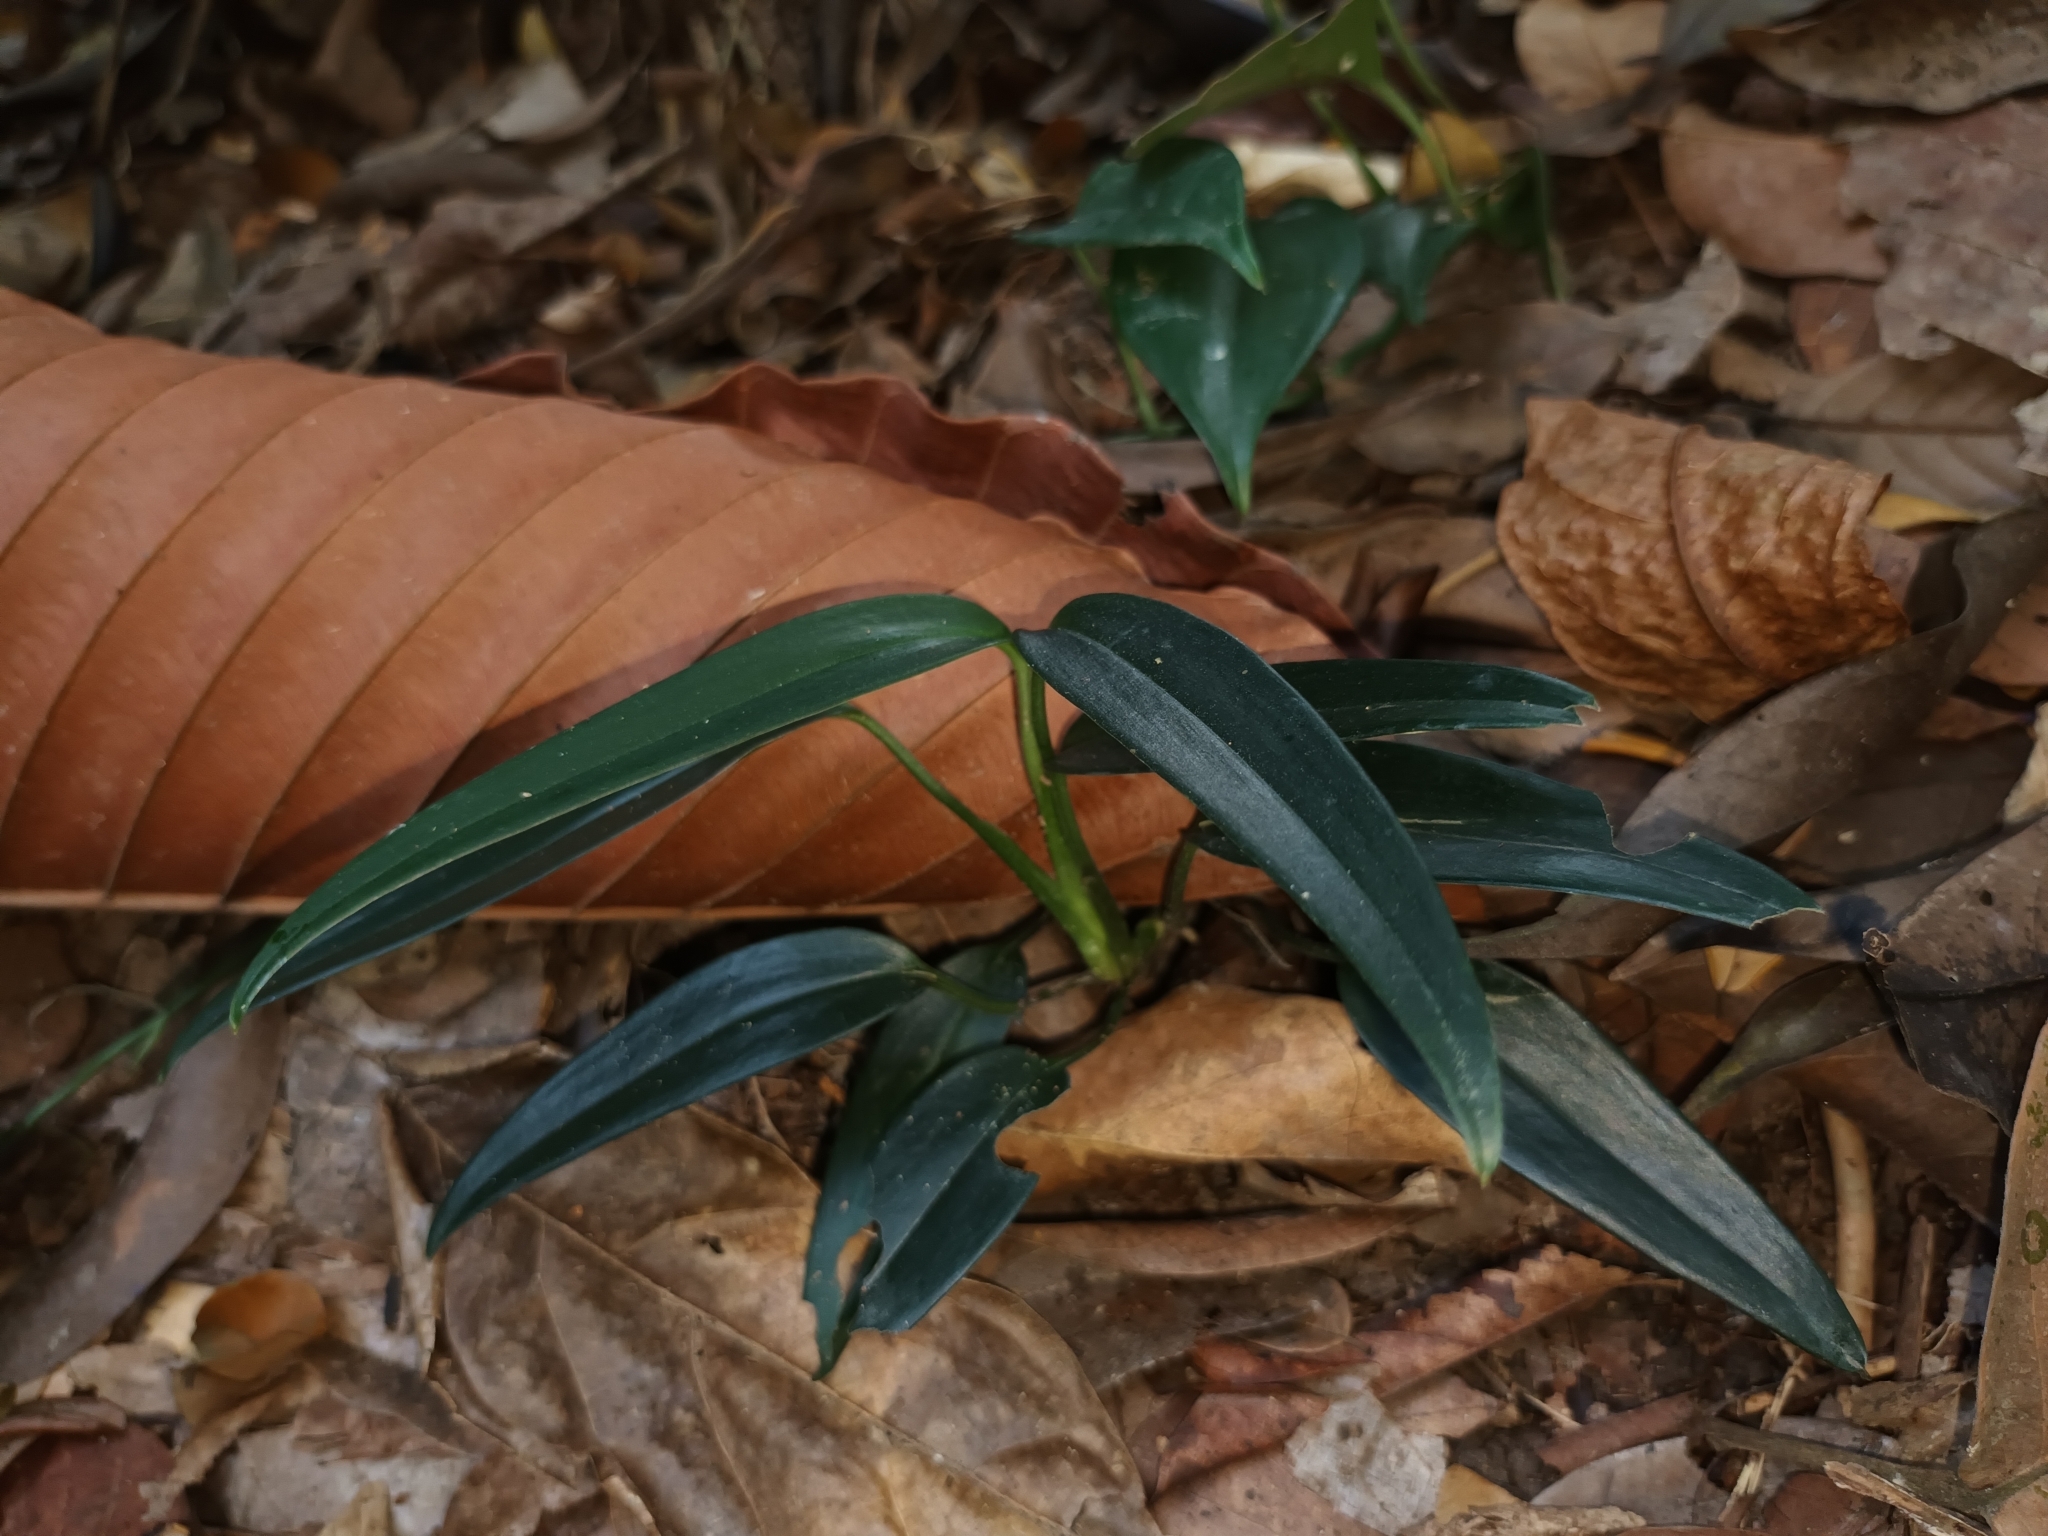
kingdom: Plantae
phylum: Tracheophyta
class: Liliopsida
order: Alismatales
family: Araceae
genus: Scindapsus
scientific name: Scindapsus hederaceus
